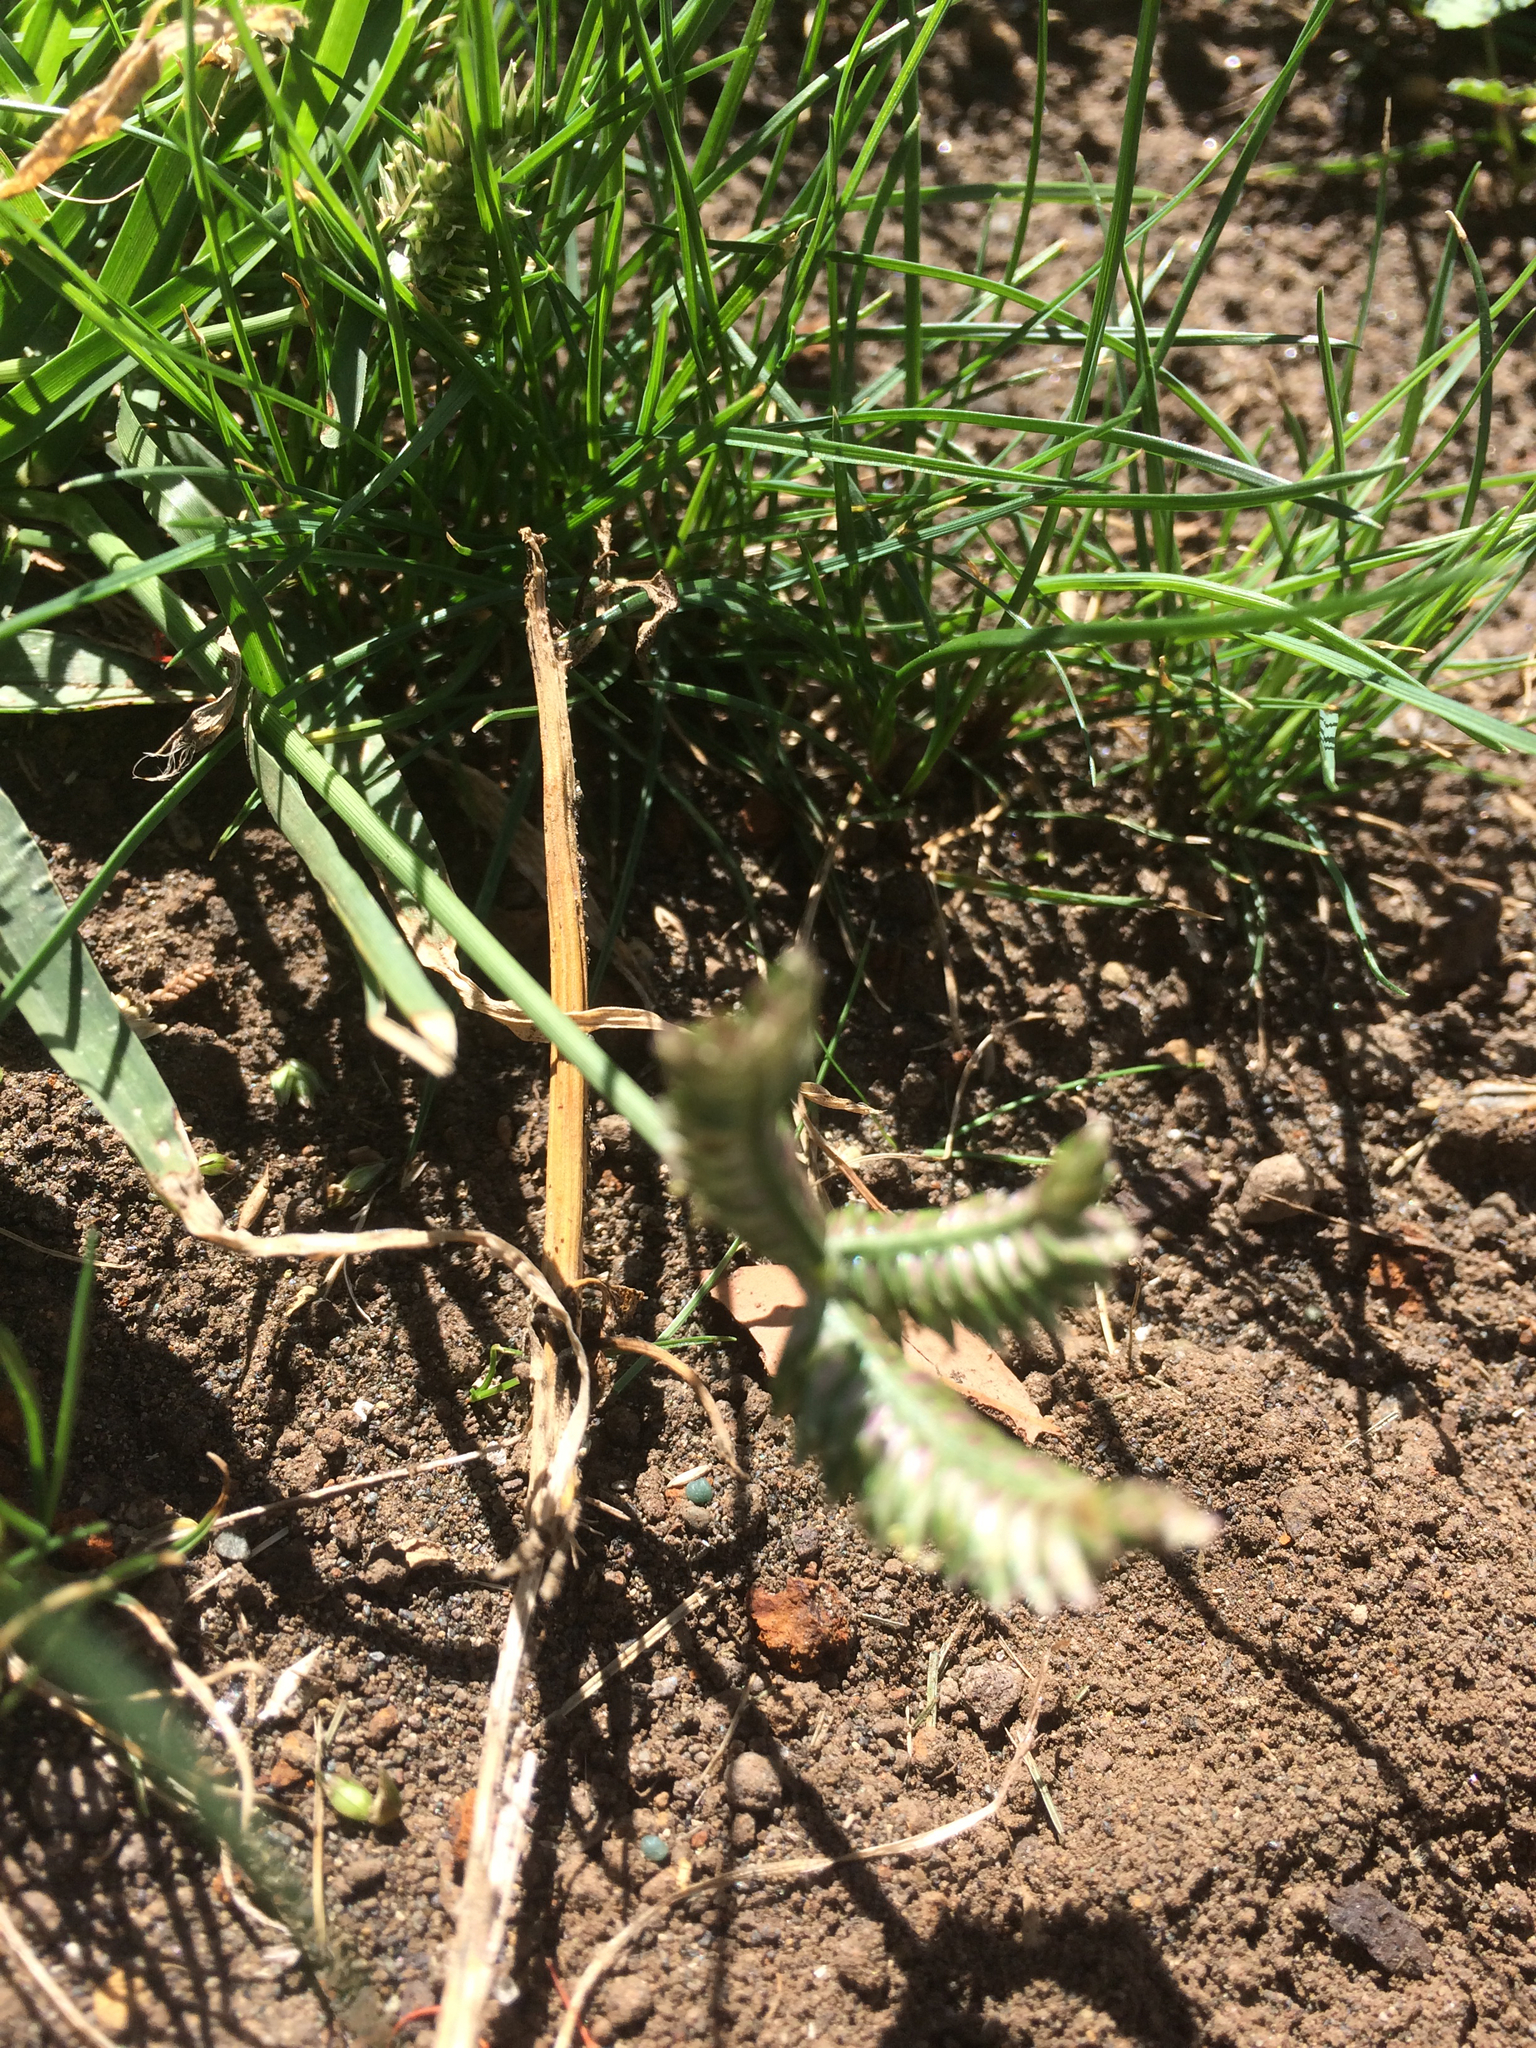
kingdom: Plantae
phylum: Tracheophyta
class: Liliopsida
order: Poales
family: Poaceae
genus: Eleusine
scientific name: Eleusine tristachya
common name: American yard-grass
